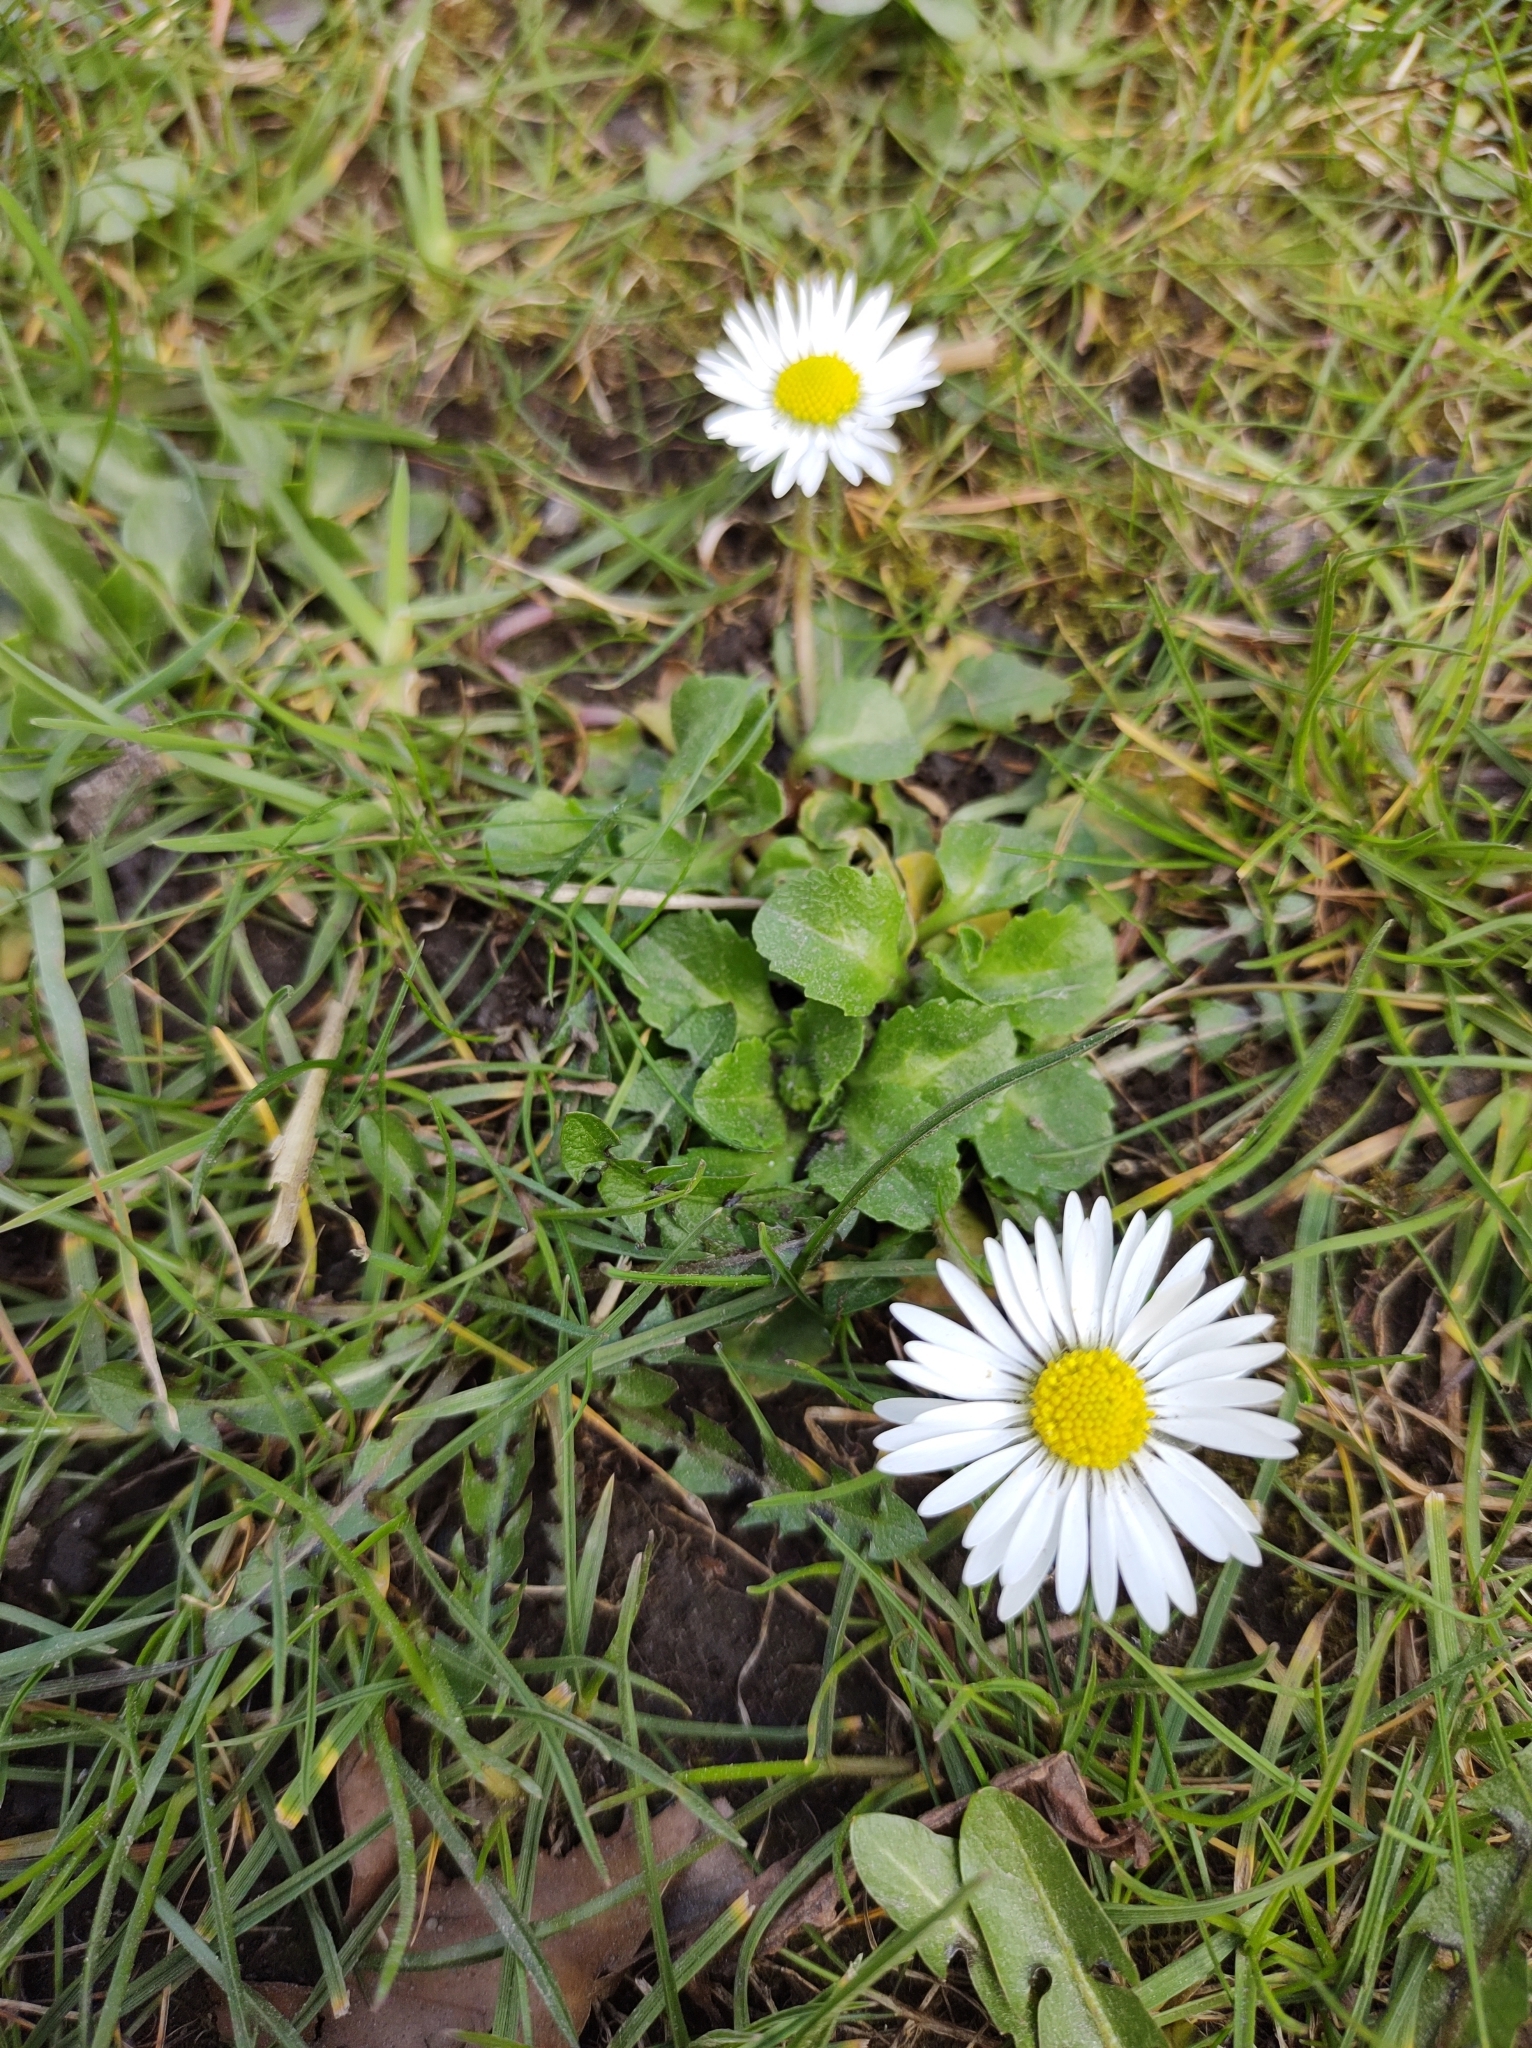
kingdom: Plantae
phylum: Tracheophyta
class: Magnoliopsida
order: Asterales
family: Asteraceae
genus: Bellis
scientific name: Bellis perennis
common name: Lawndaisy
